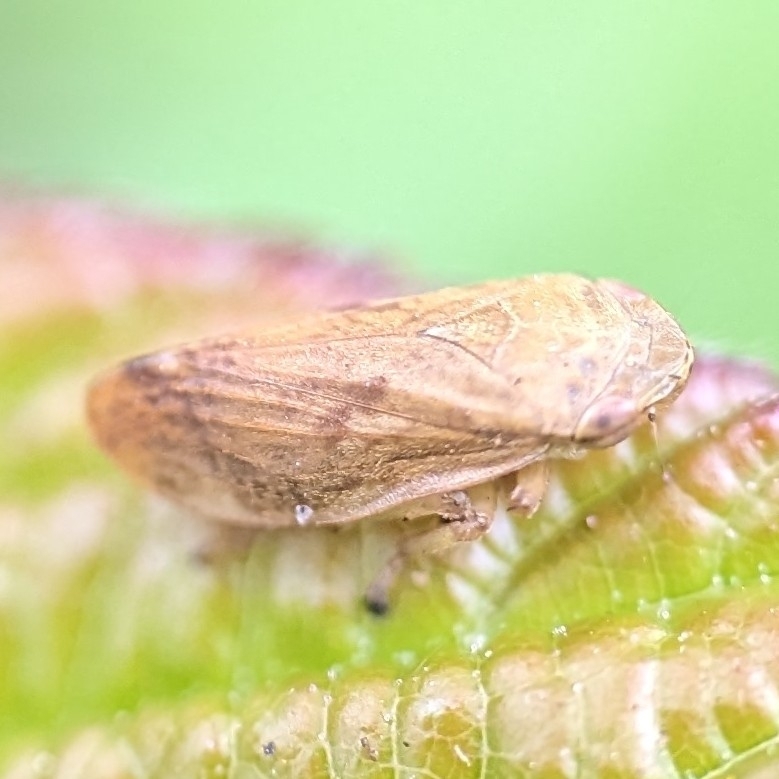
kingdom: Animalia
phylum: Arthropoda
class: Insecta
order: Hemiptera
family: Aphrophoridae
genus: Philaenus
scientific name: Philaenus spumarius
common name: Meadow spittlebug
